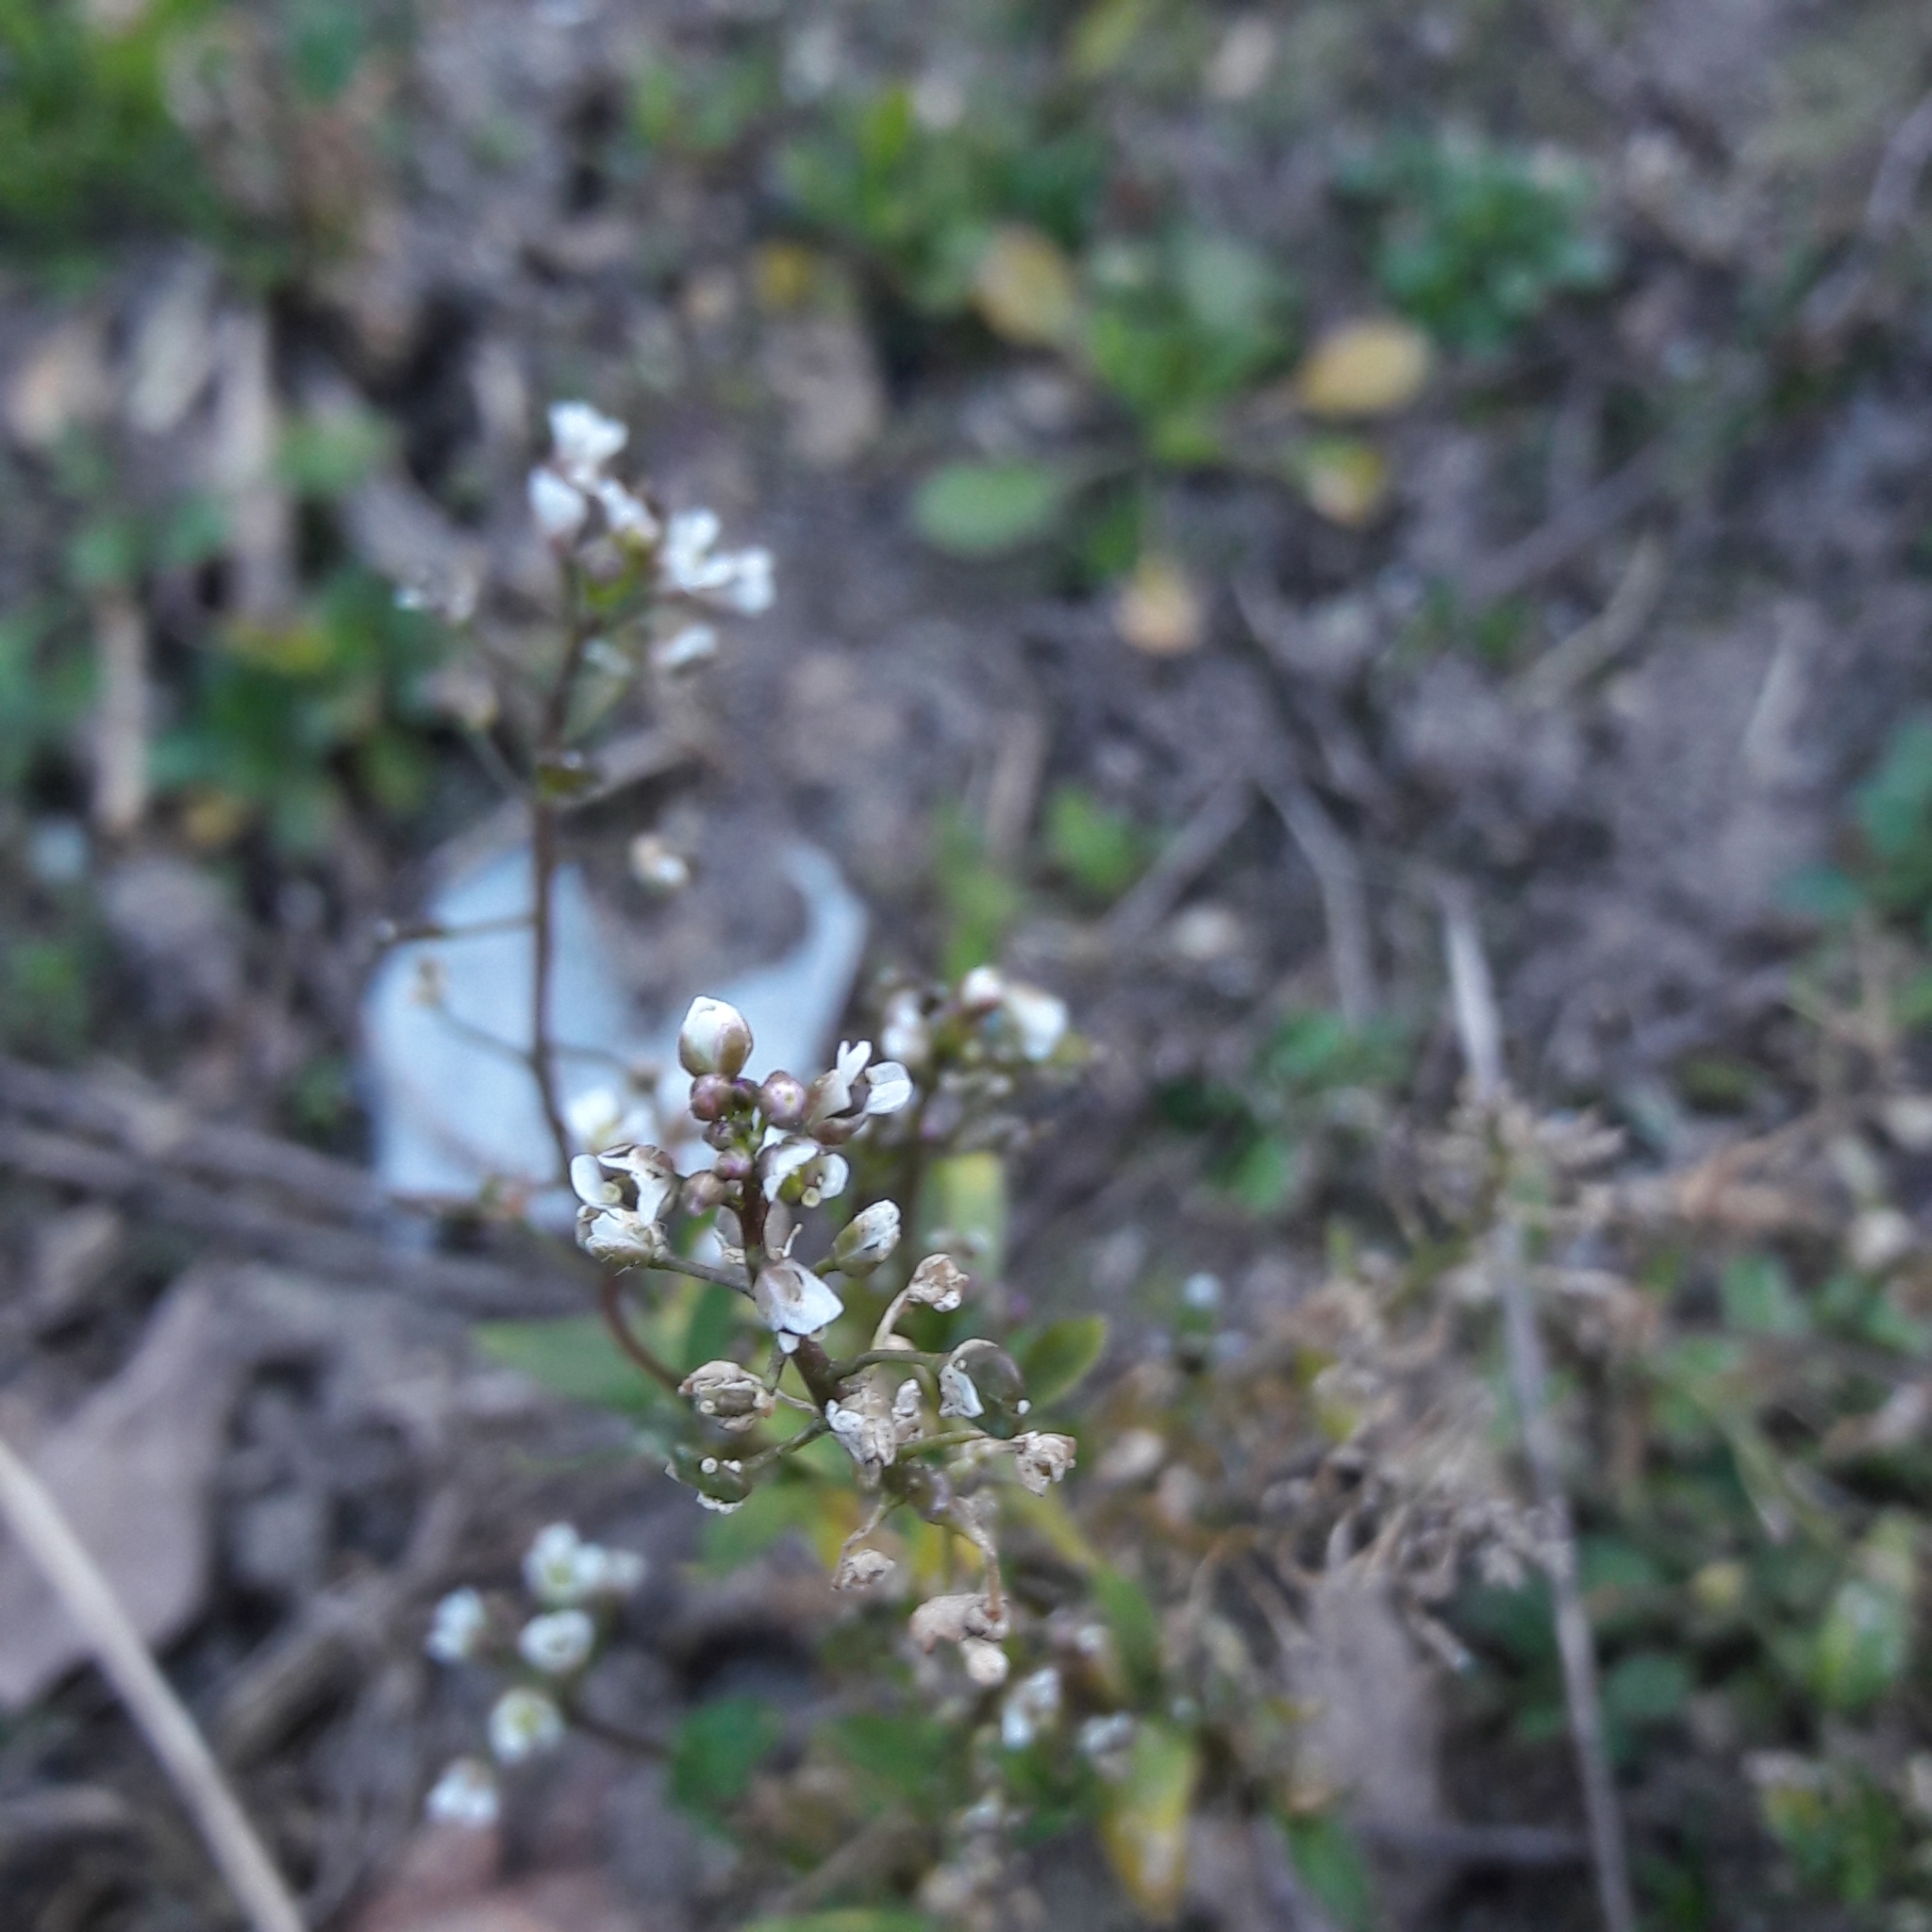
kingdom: Plantae
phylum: Tracheophyta
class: Magnoliopsida
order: Brassicales
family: Brassicaceae
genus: Capsella
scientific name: Capsella bursa-pastoris
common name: Shepherd's purse
